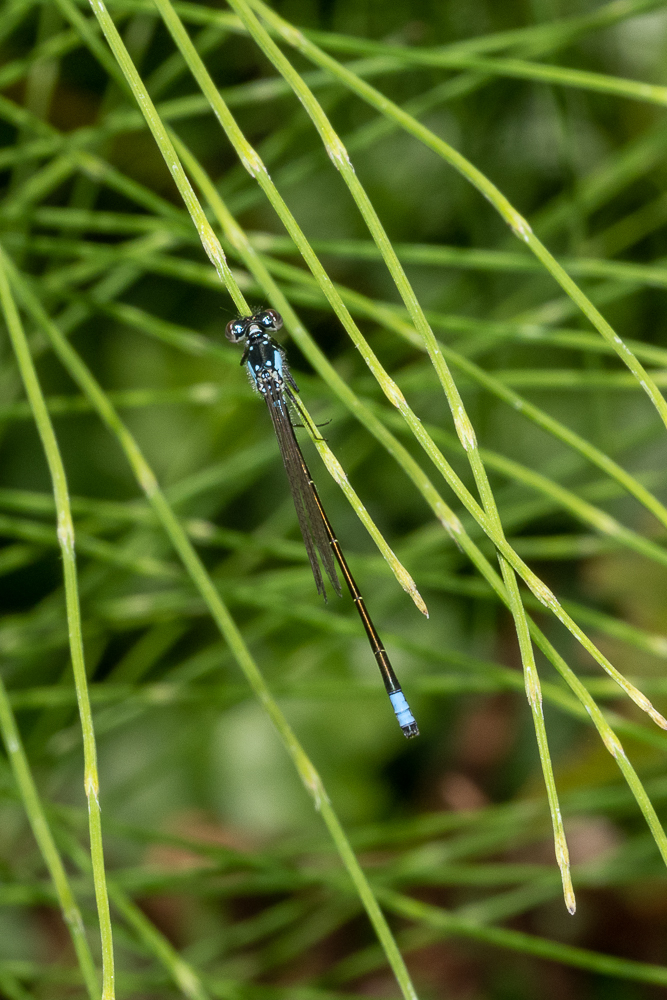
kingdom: Animalia
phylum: Arthropoda
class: Insecta
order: Odonata
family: Coenagrionidae
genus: Ischnura
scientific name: Ischnura cervula
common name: Pacific forktail
